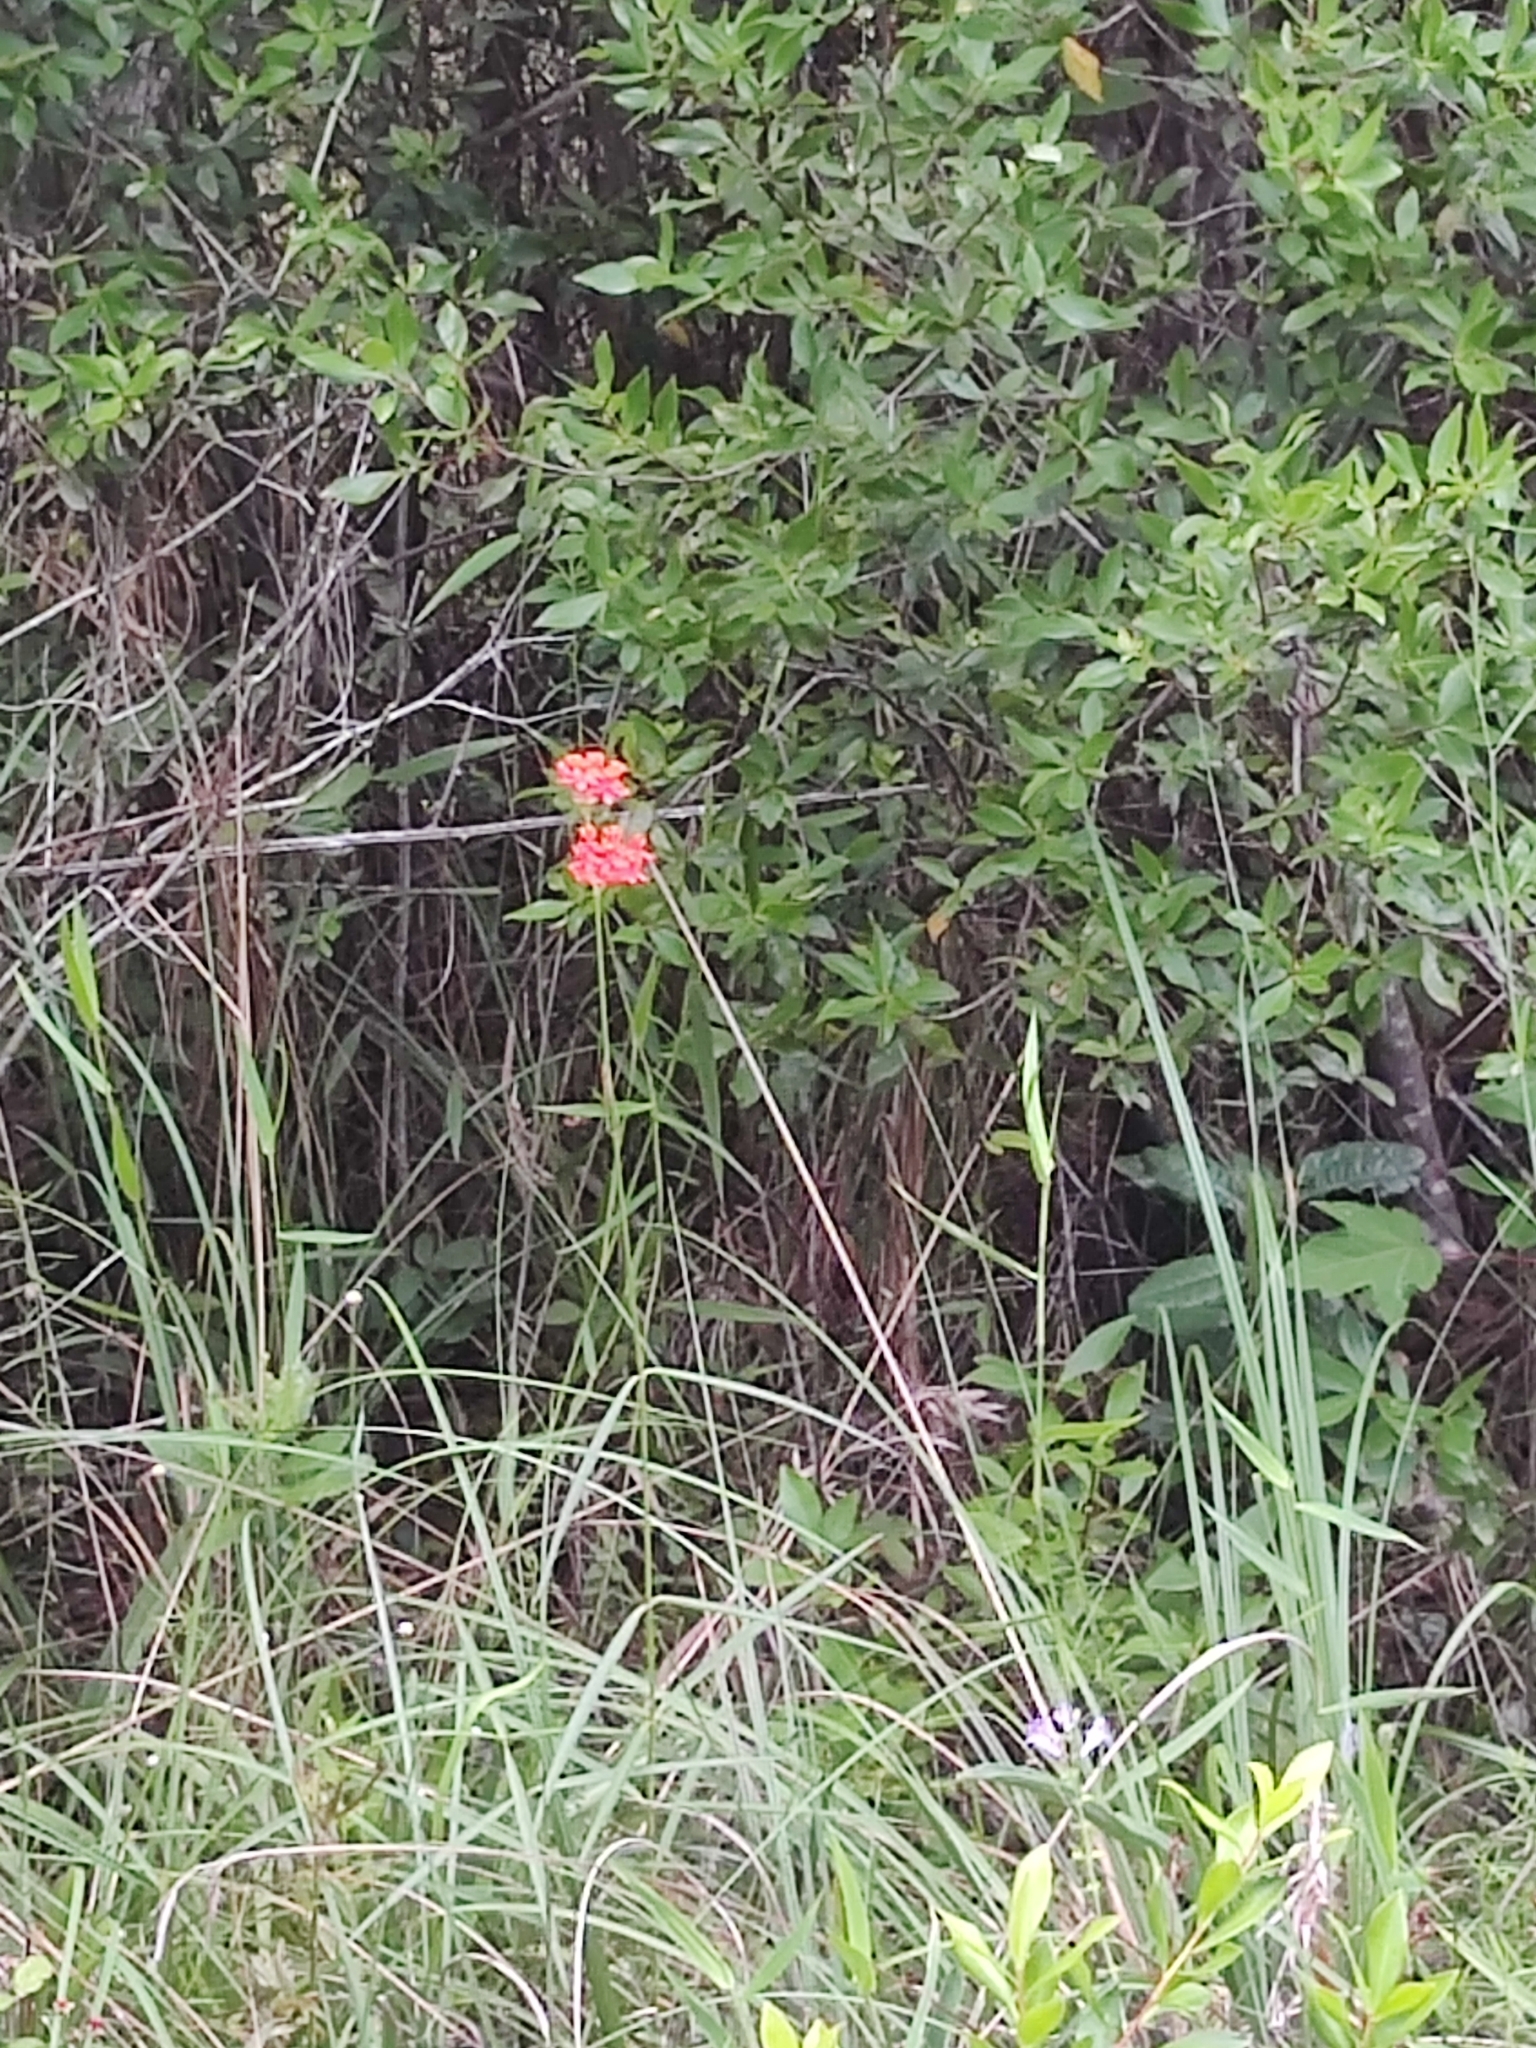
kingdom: Plantae
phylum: Tracheophyta
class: Magnoliopsida
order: Gentianales
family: Apocynaceae
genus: Asclepias
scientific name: Asclepias lanceolata
